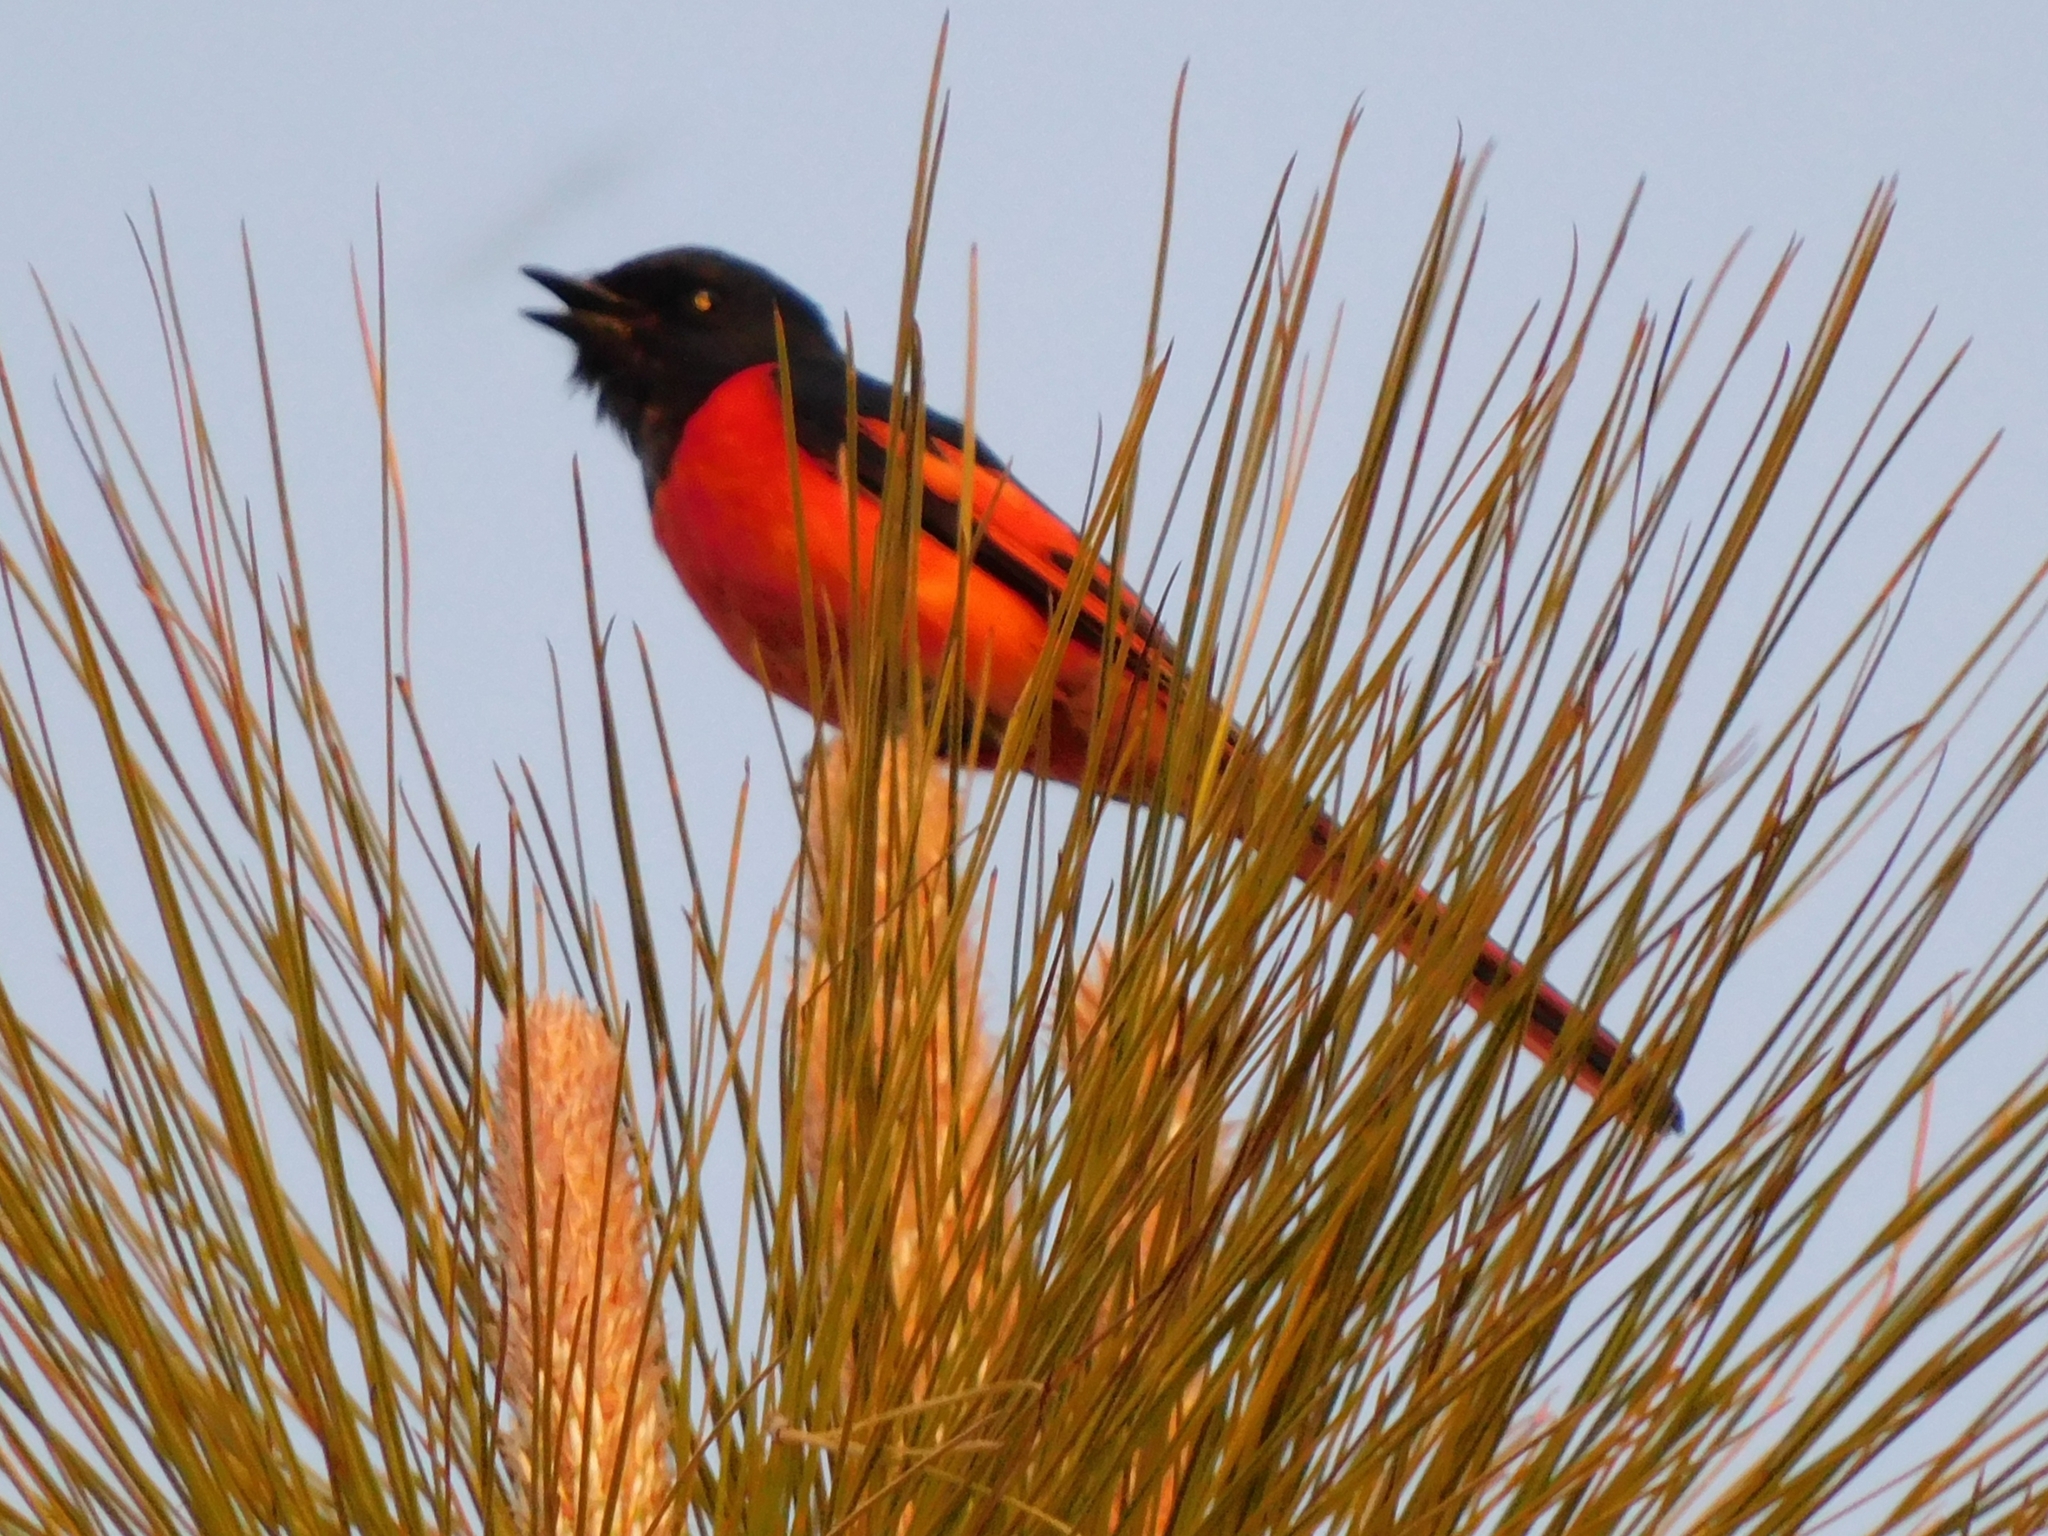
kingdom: Animalia
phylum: Chordata
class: Aves
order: Passeriformes
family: Campephagidae
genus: Pericrocotus
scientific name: Pericrocotus ethologus
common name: Long-tailed minivet
